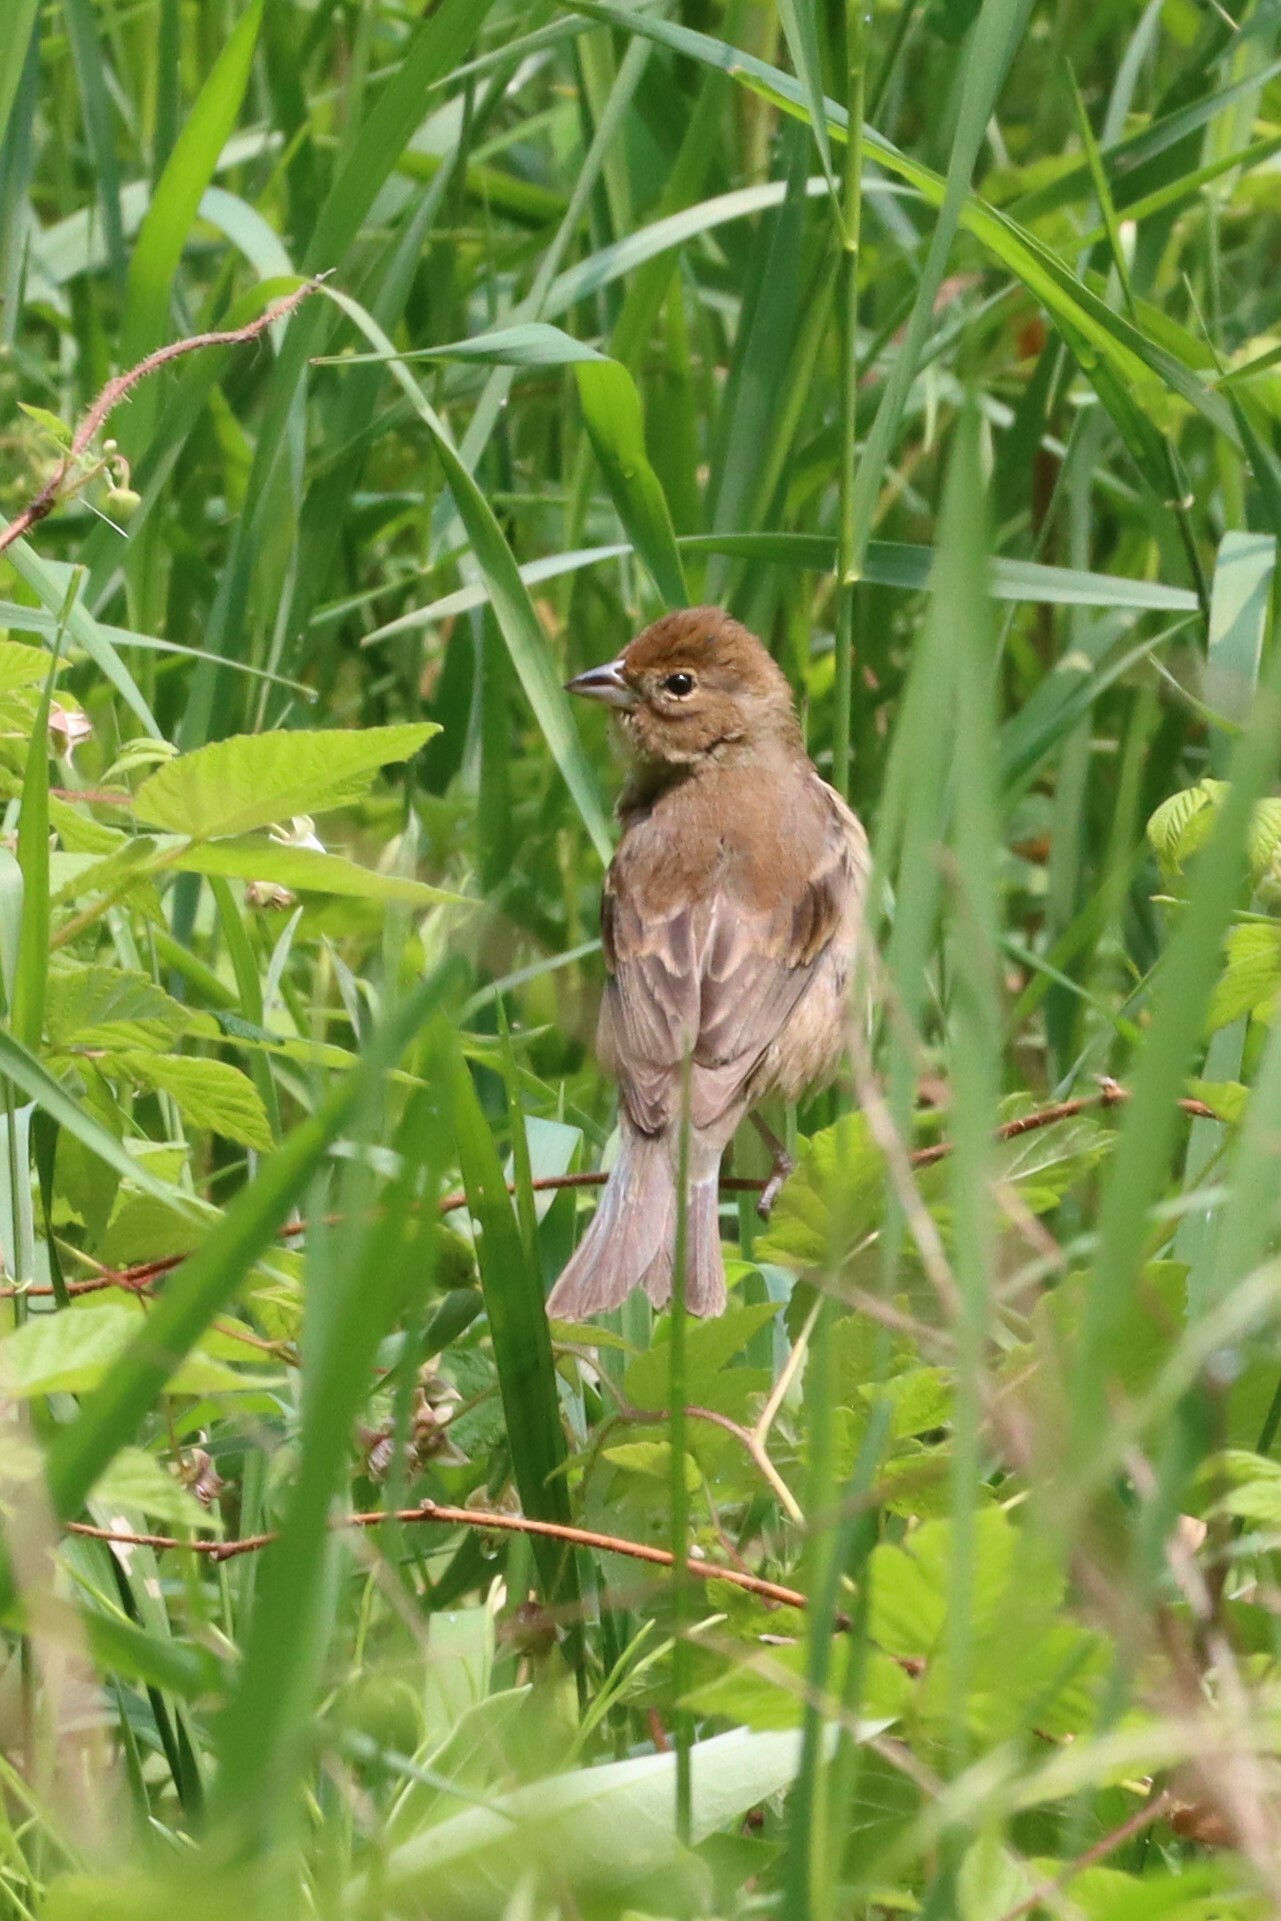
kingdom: Animalia
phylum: Chordata
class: Aves
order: Passeriformes
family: Cardinalidae
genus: Passerina
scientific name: Passerina cyanea
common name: Indigo bunting
